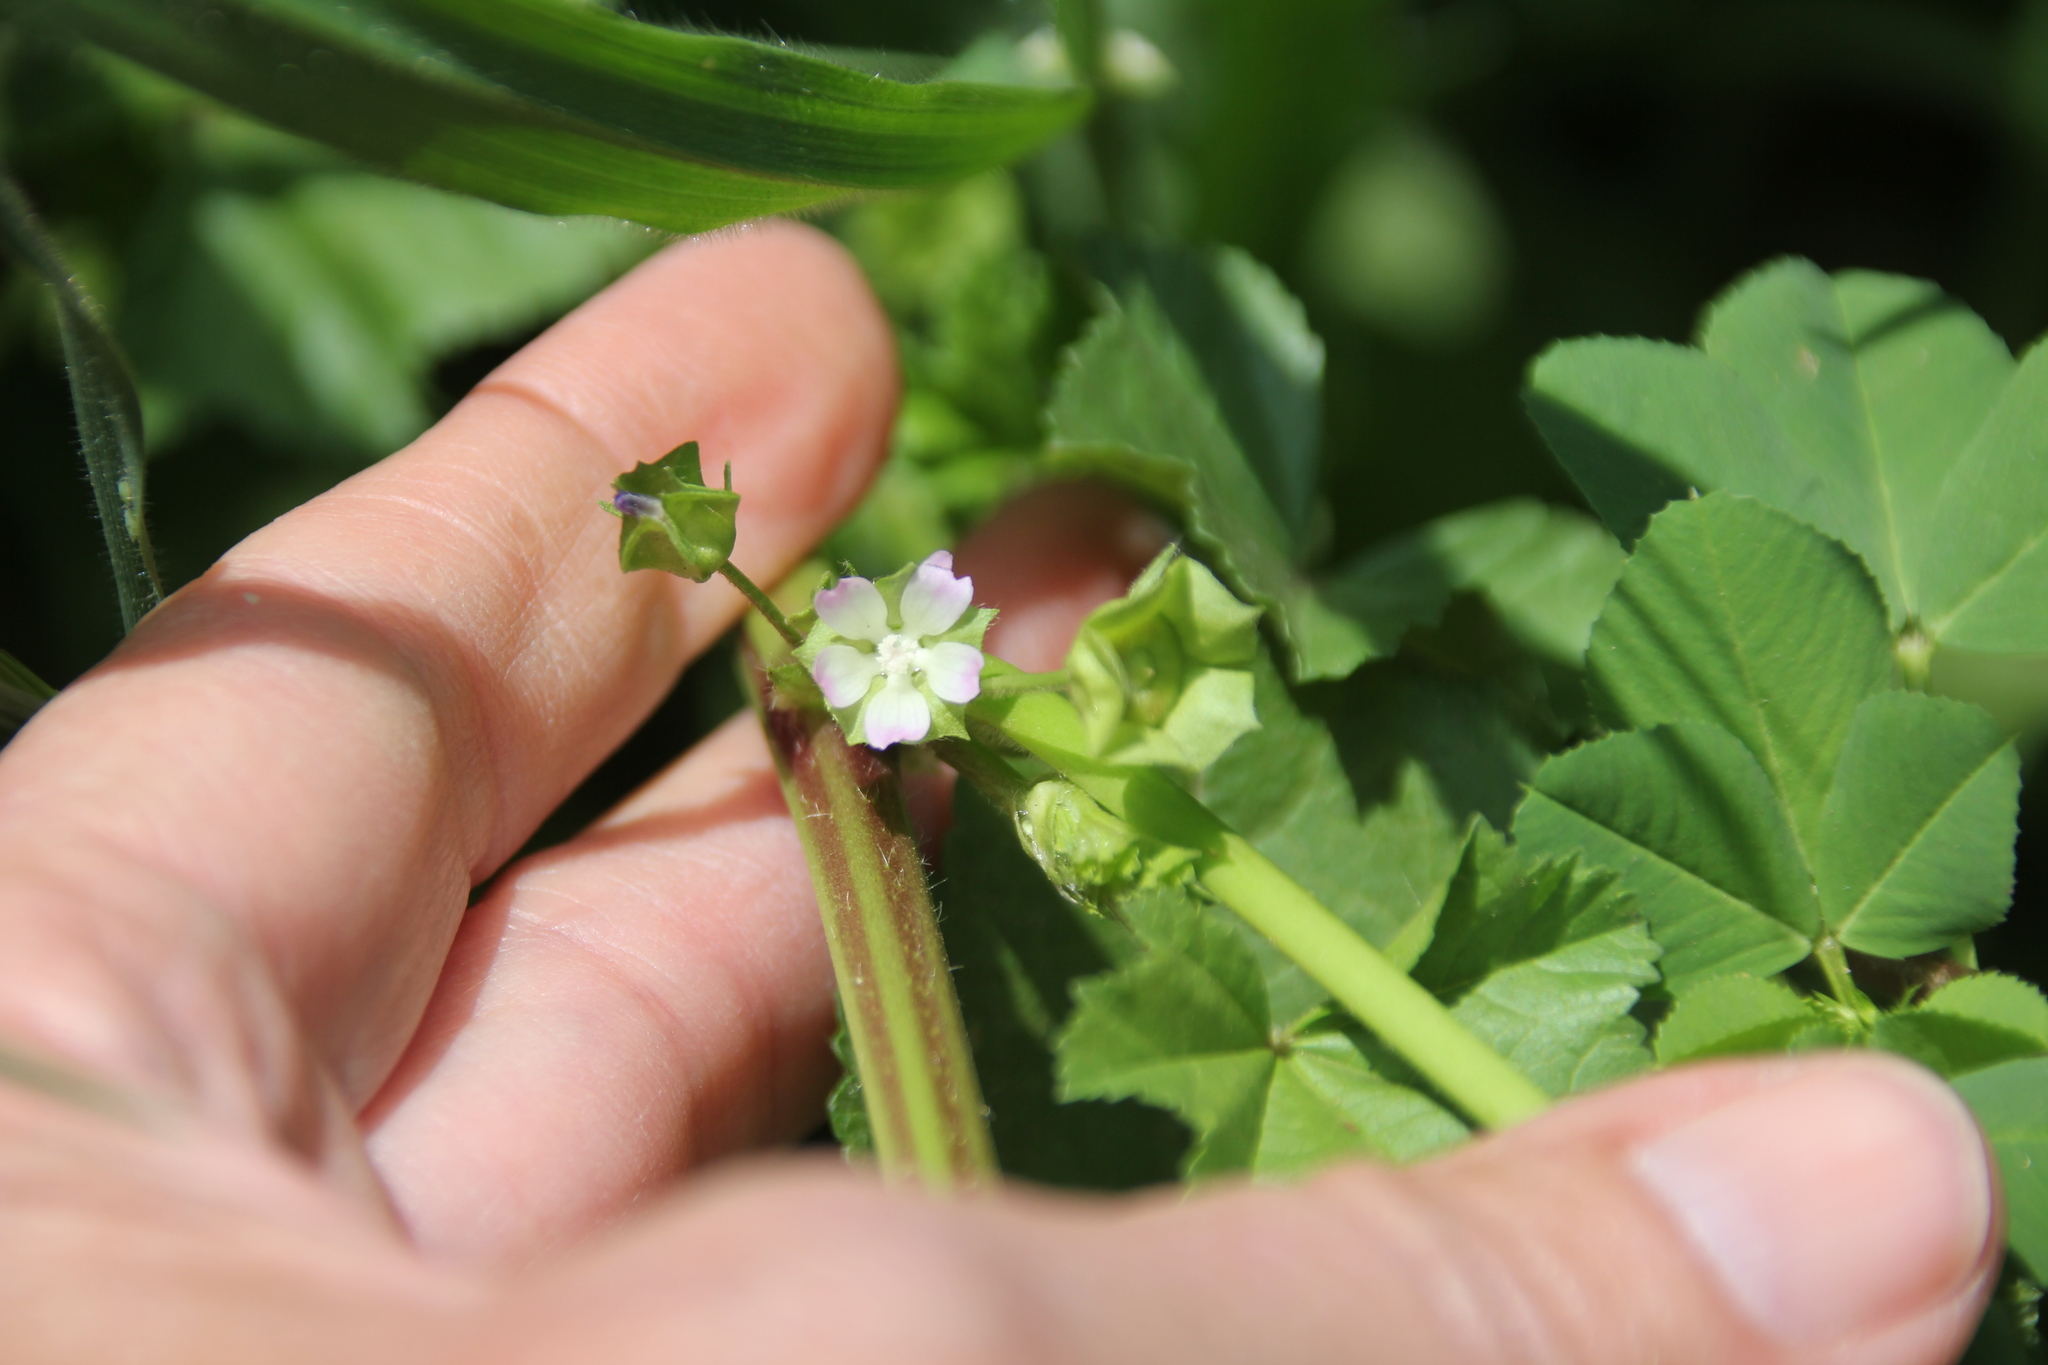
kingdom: Plantae
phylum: Tracheophyta
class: Magnoliopsida
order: Malvales
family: Malvaceae
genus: Malva
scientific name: Malva parviflora
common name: Least mallow
